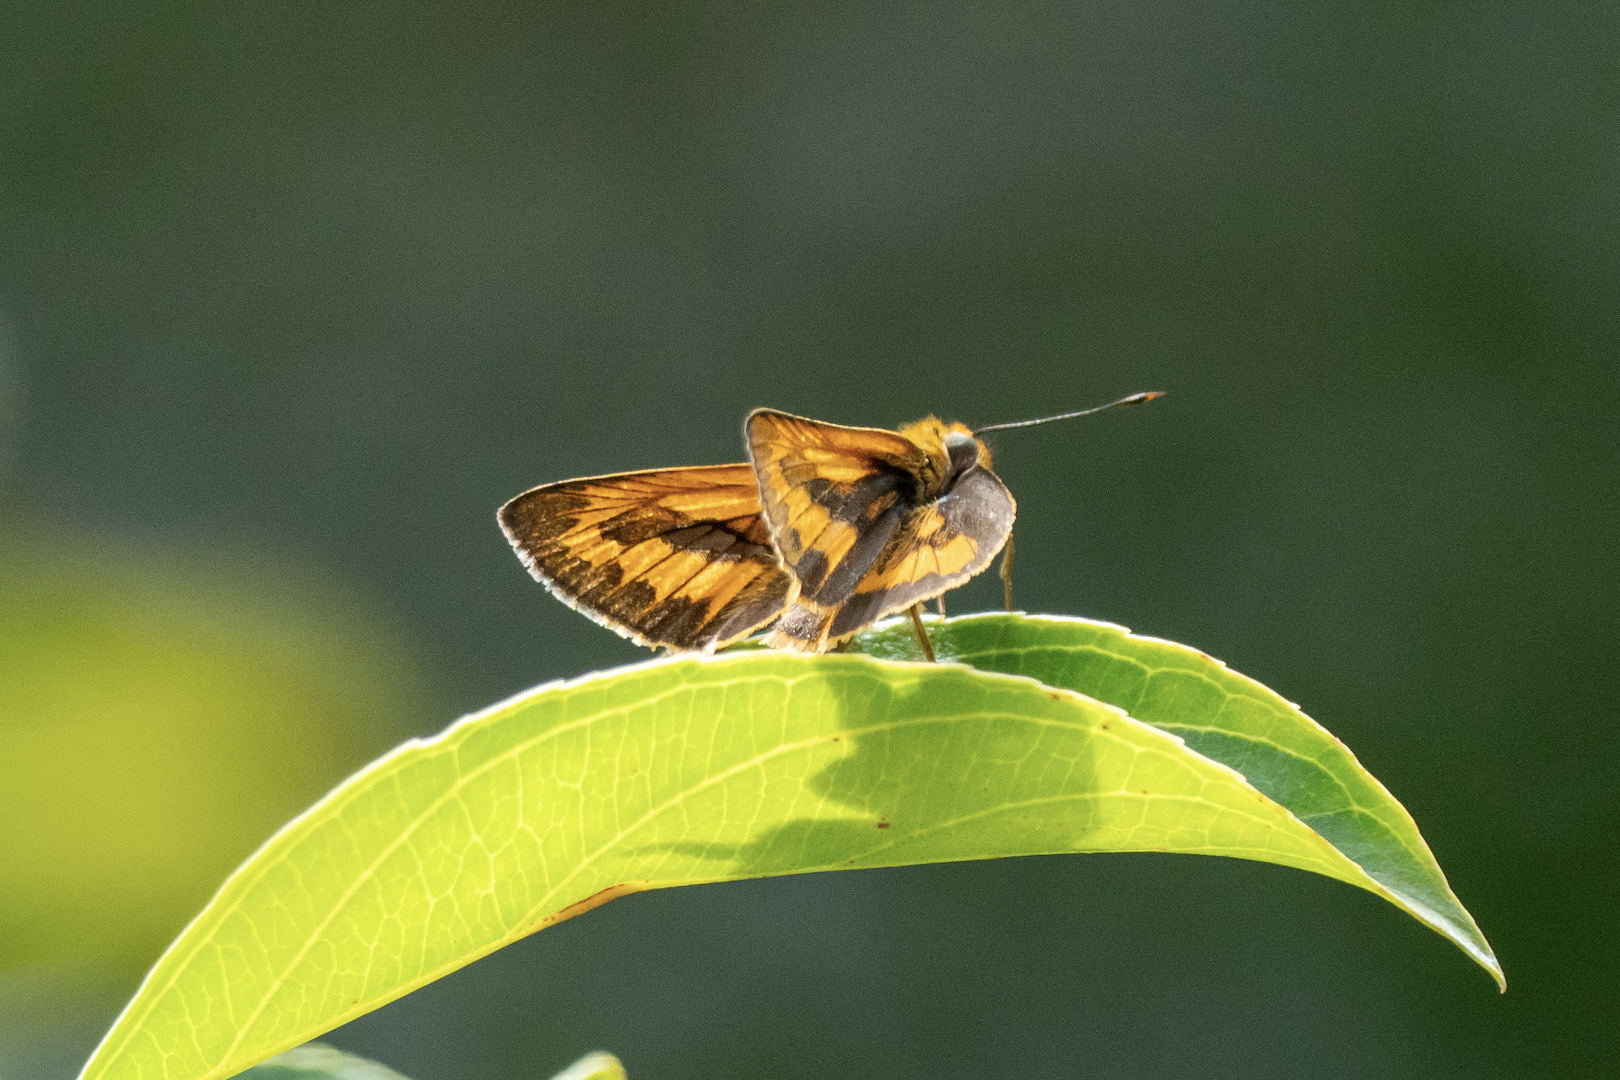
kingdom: Animalia
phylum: Arthropoda
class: Insecta
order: Lepidoptera
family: Hesperiidae
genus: Telicota
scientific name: Telicota bambusae
